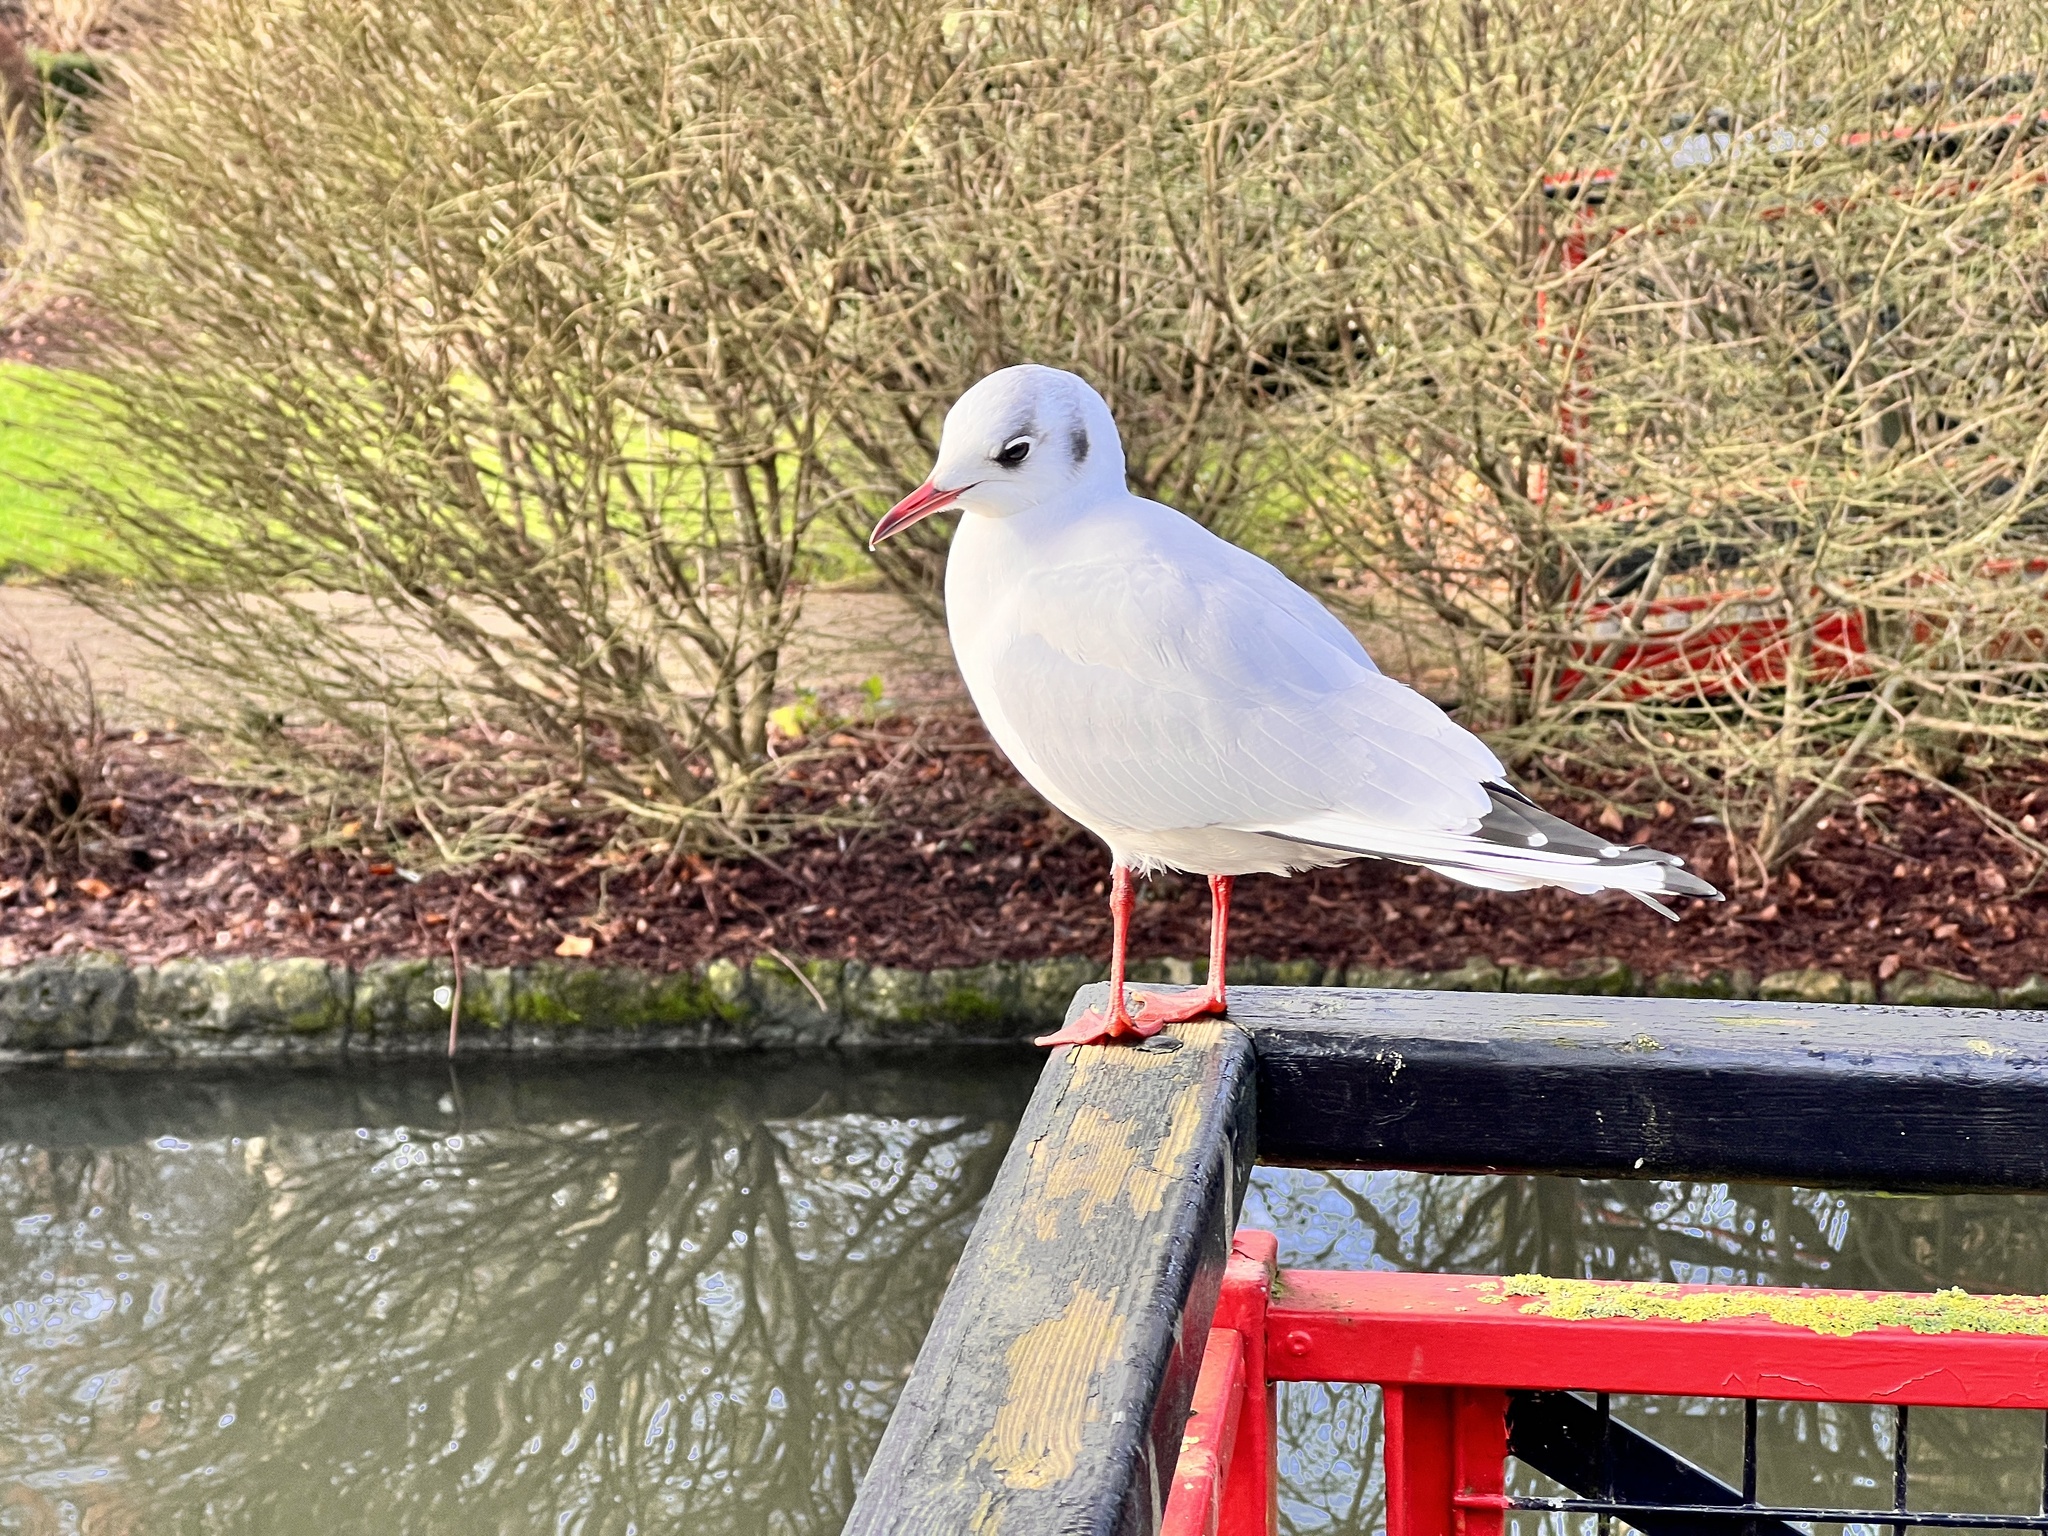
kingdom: Animalia
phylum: Chordata
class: Aves
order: Charadriiformes
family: Laridae
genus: Chroicocephalus
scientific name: Chroicocephalus ridibundus
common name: Black-headed gull
